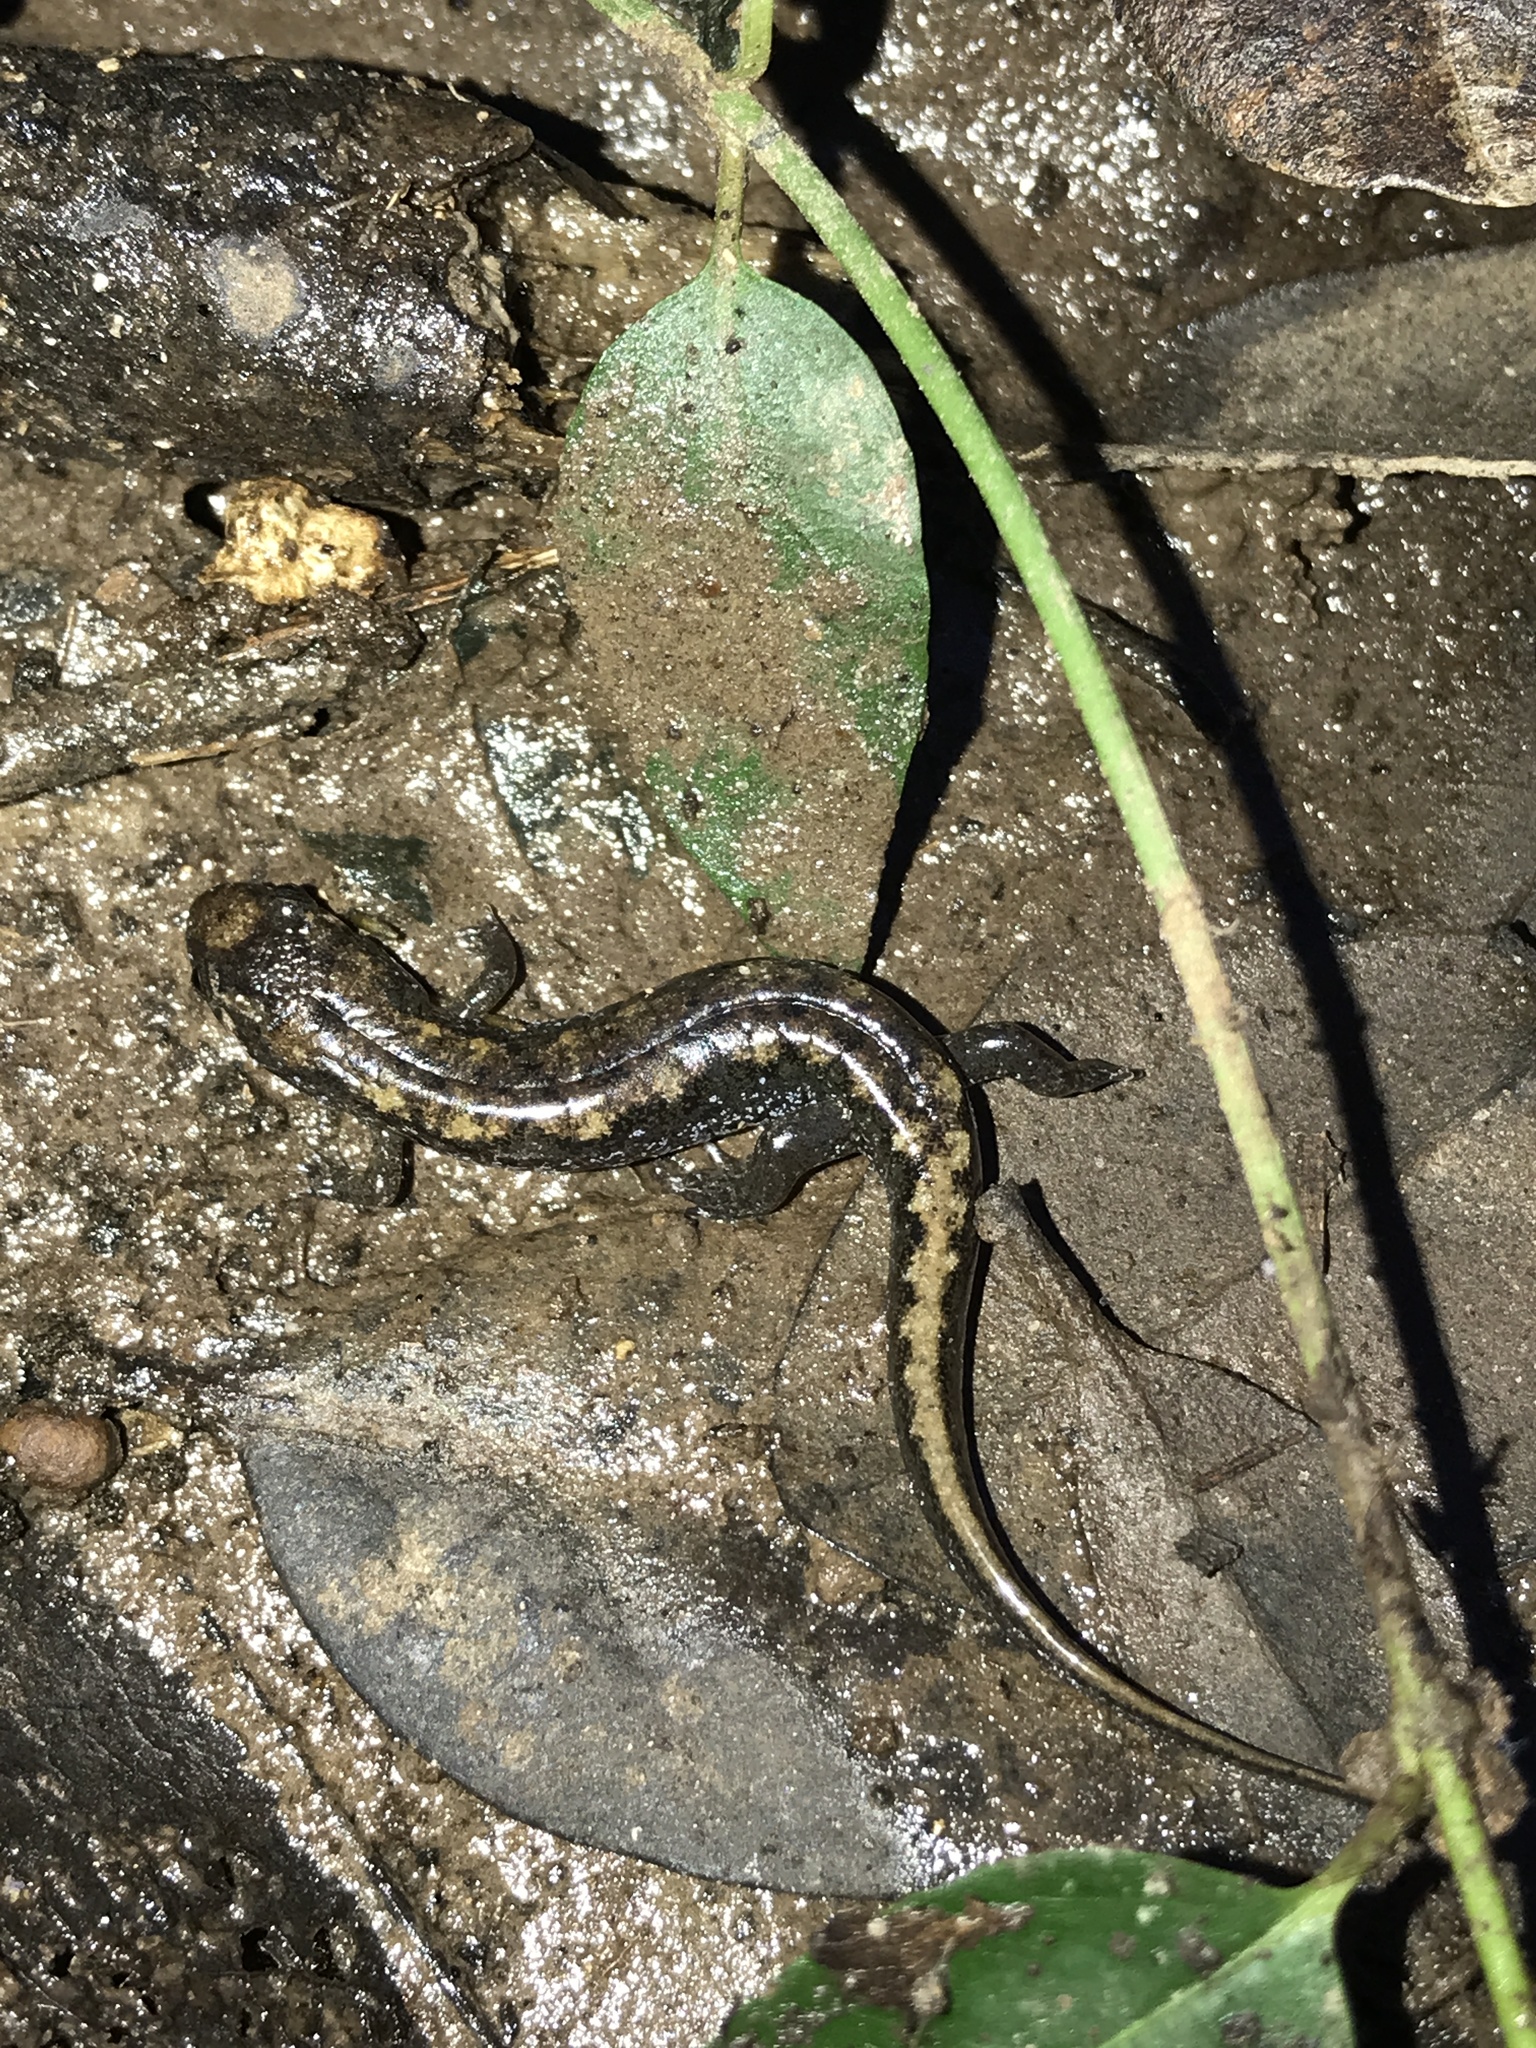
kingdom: Animalia
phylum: Chordata
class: Amphibia
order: Caudata
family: Plethodontidae
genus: Desmognathus
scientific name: Desmognathus conanti
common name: Spotted dusky salamander
